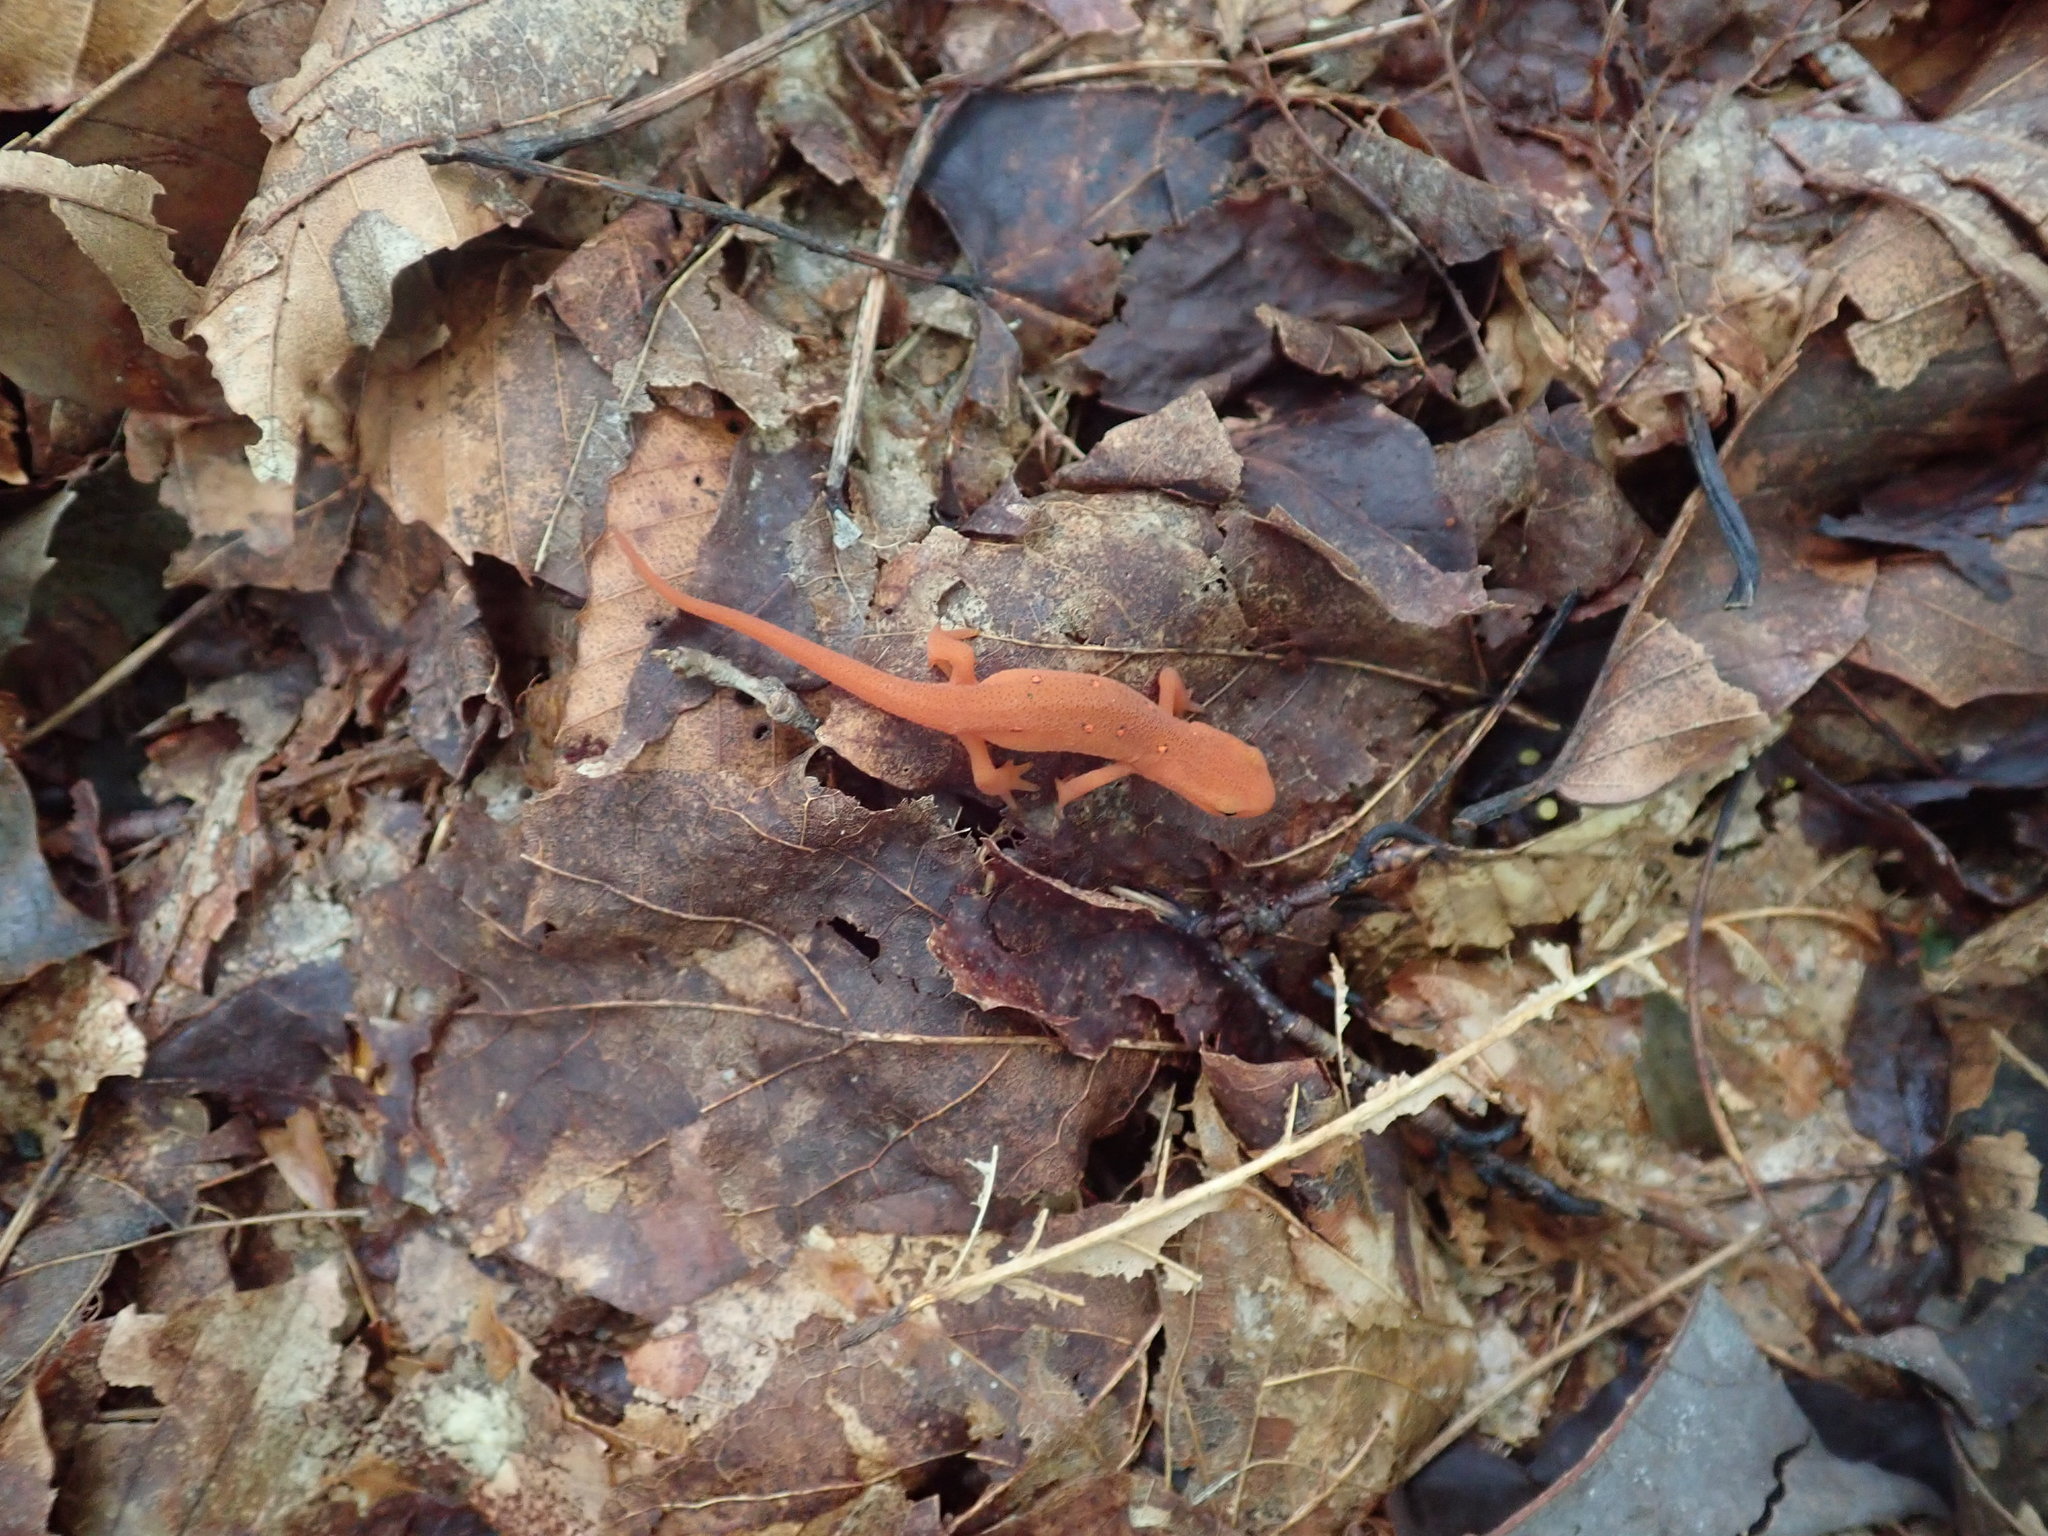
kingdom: Animalia
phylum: Chordata
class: Amphibia
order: Caudata
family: Salamandridae
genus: Notophthalmus
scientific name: Notophthalmus viridescens
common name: Eastern newt
